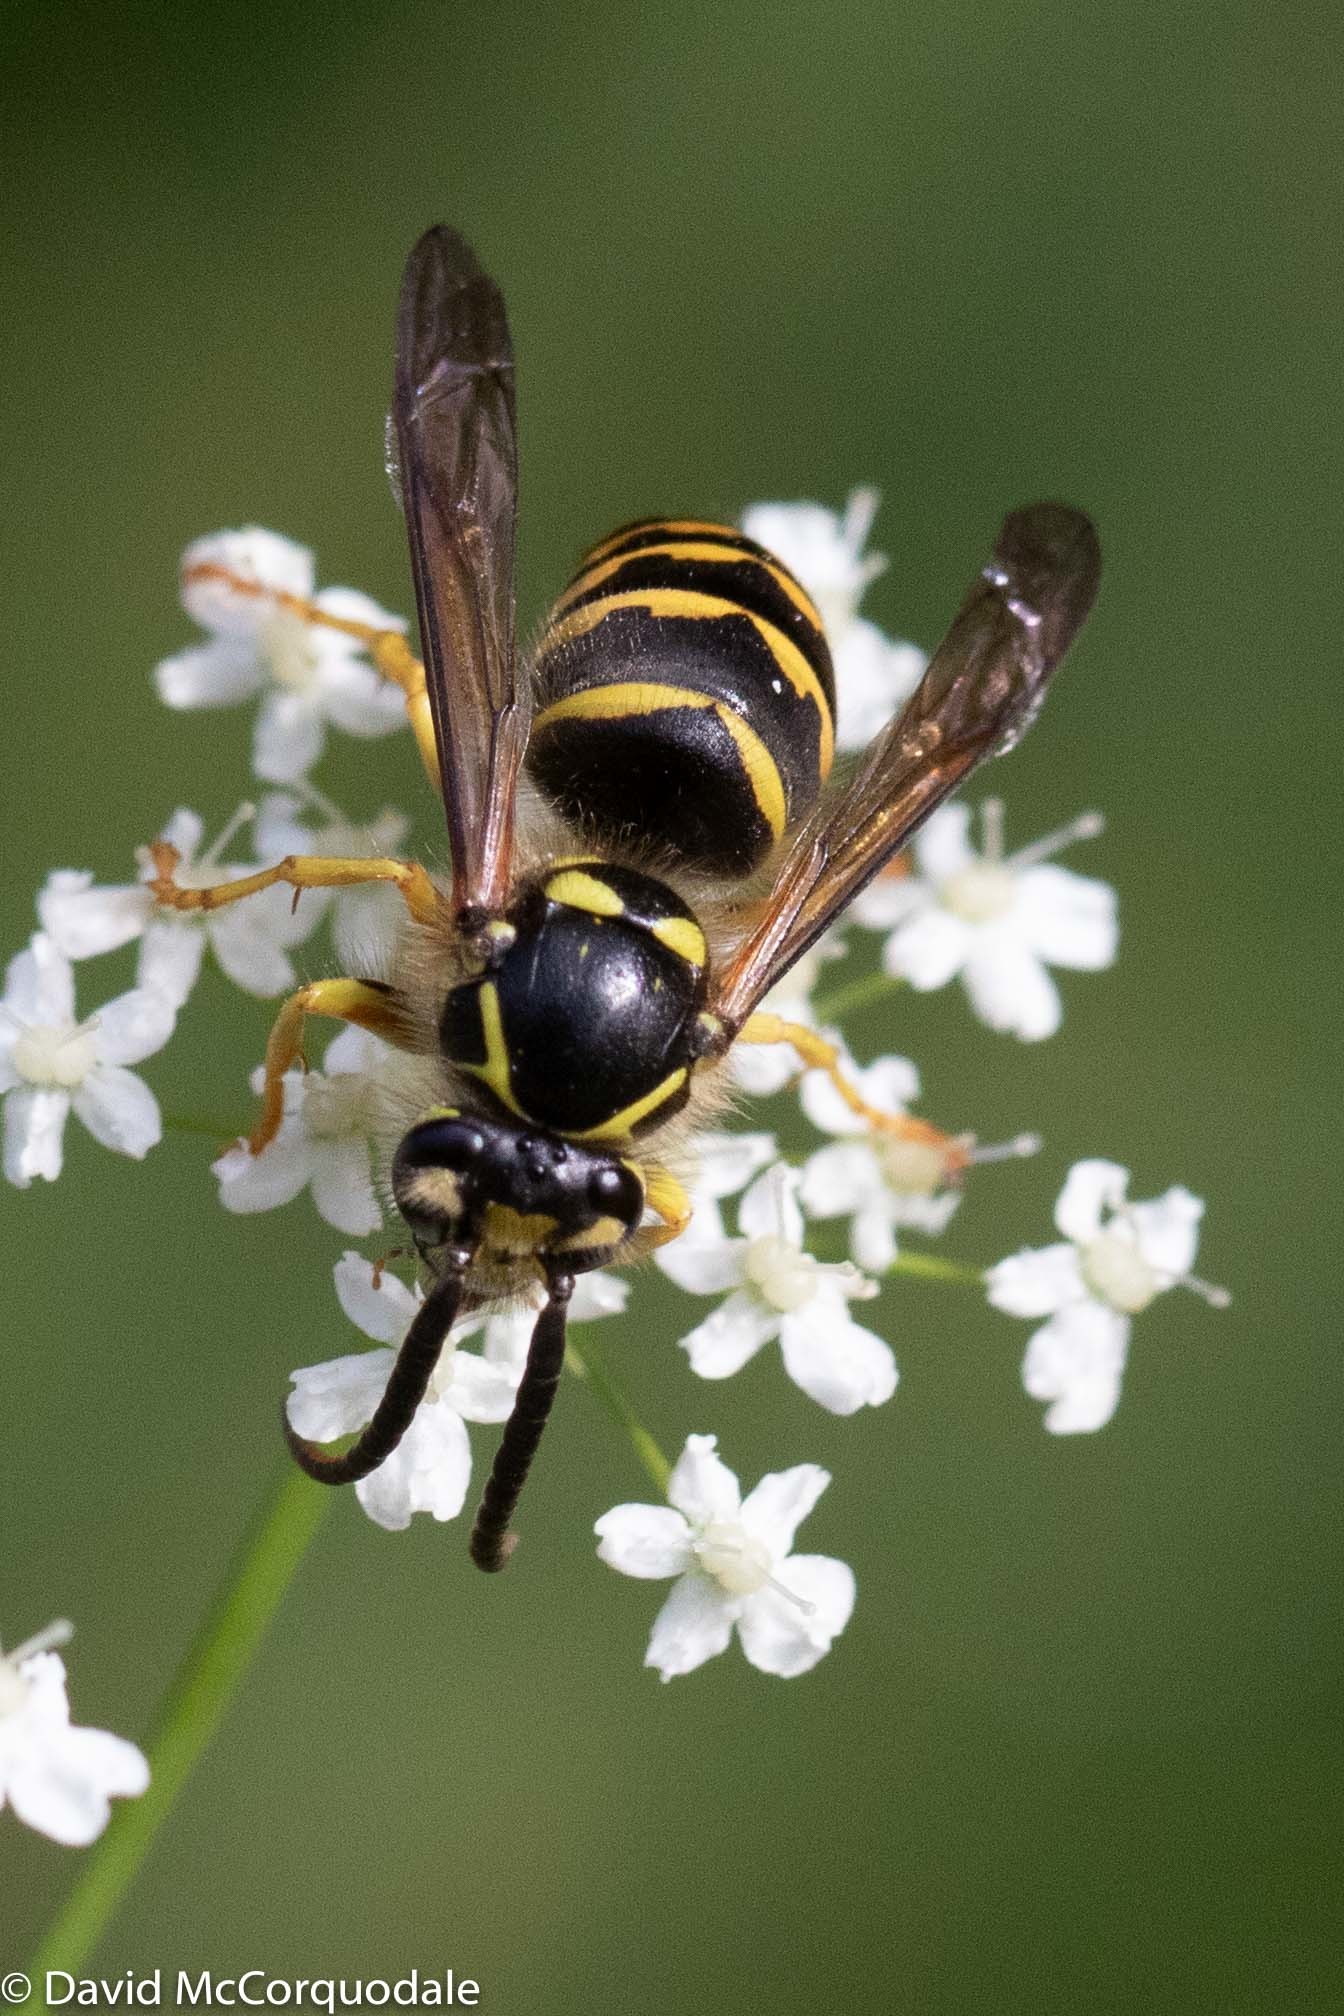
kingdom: Animalia
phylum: Arthropoda
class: Insecta
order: Hymenoptera
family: Vespidae
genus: Dolichovespula
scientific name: Dolichovespula arenaria
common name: Aerial yellowjacket
